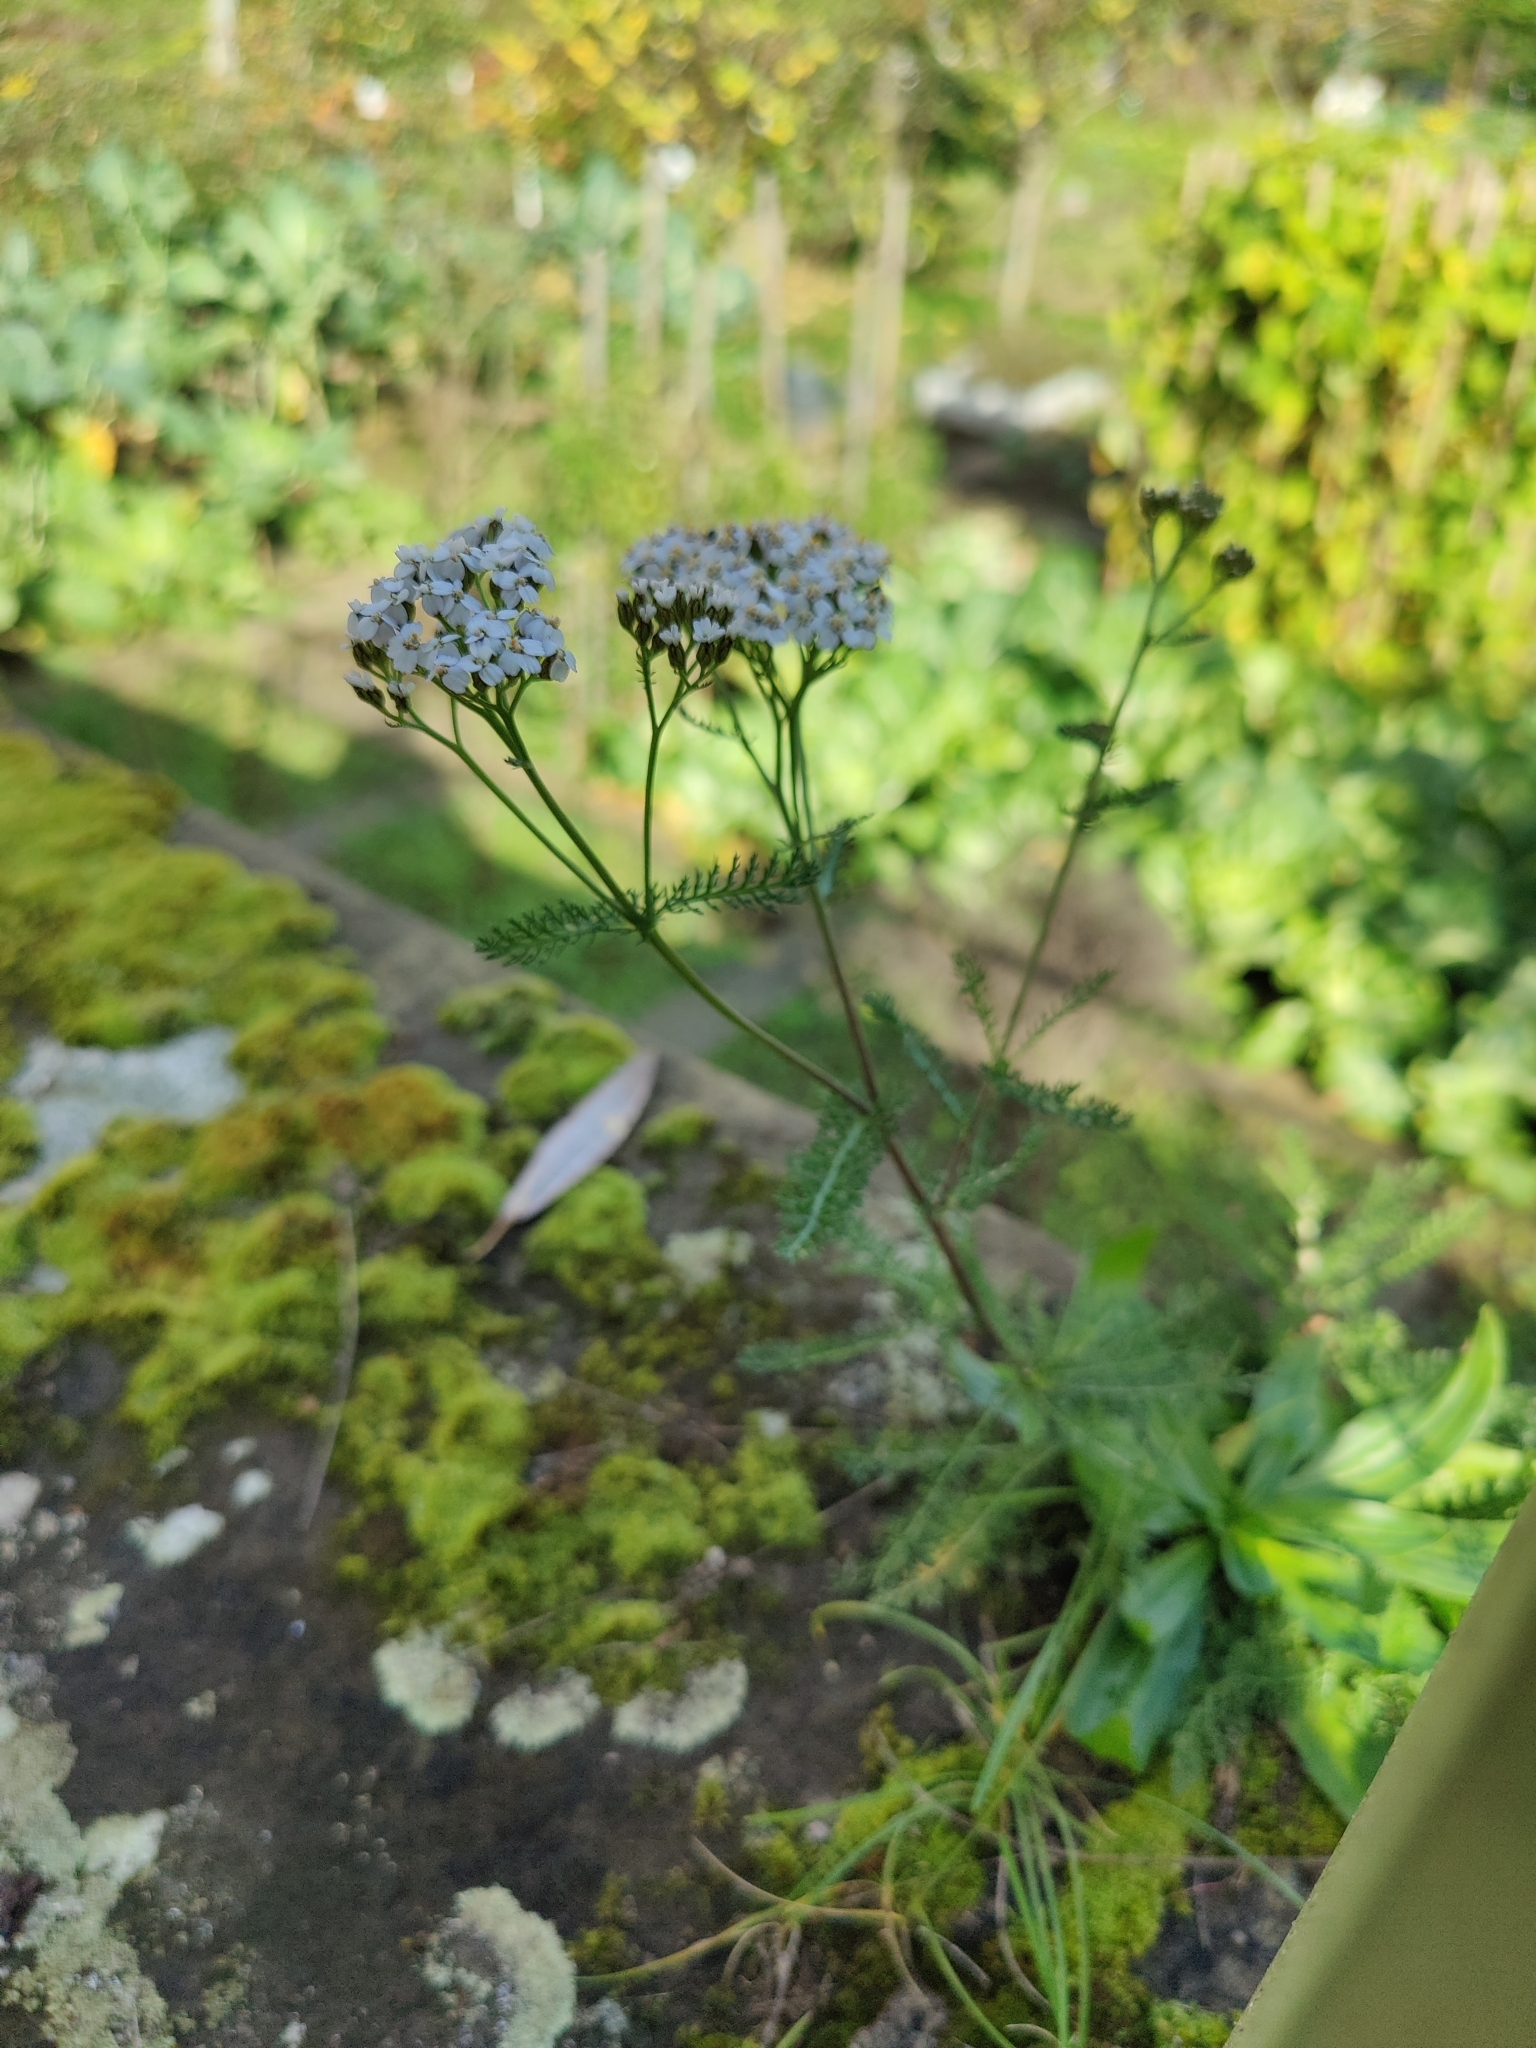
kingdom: Plantae
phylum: Tracheophyta
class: Magnoliopsida
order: Asterales
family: Asteraceae
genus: Achillea
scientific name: Achillea millefolium
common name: Yarrow
